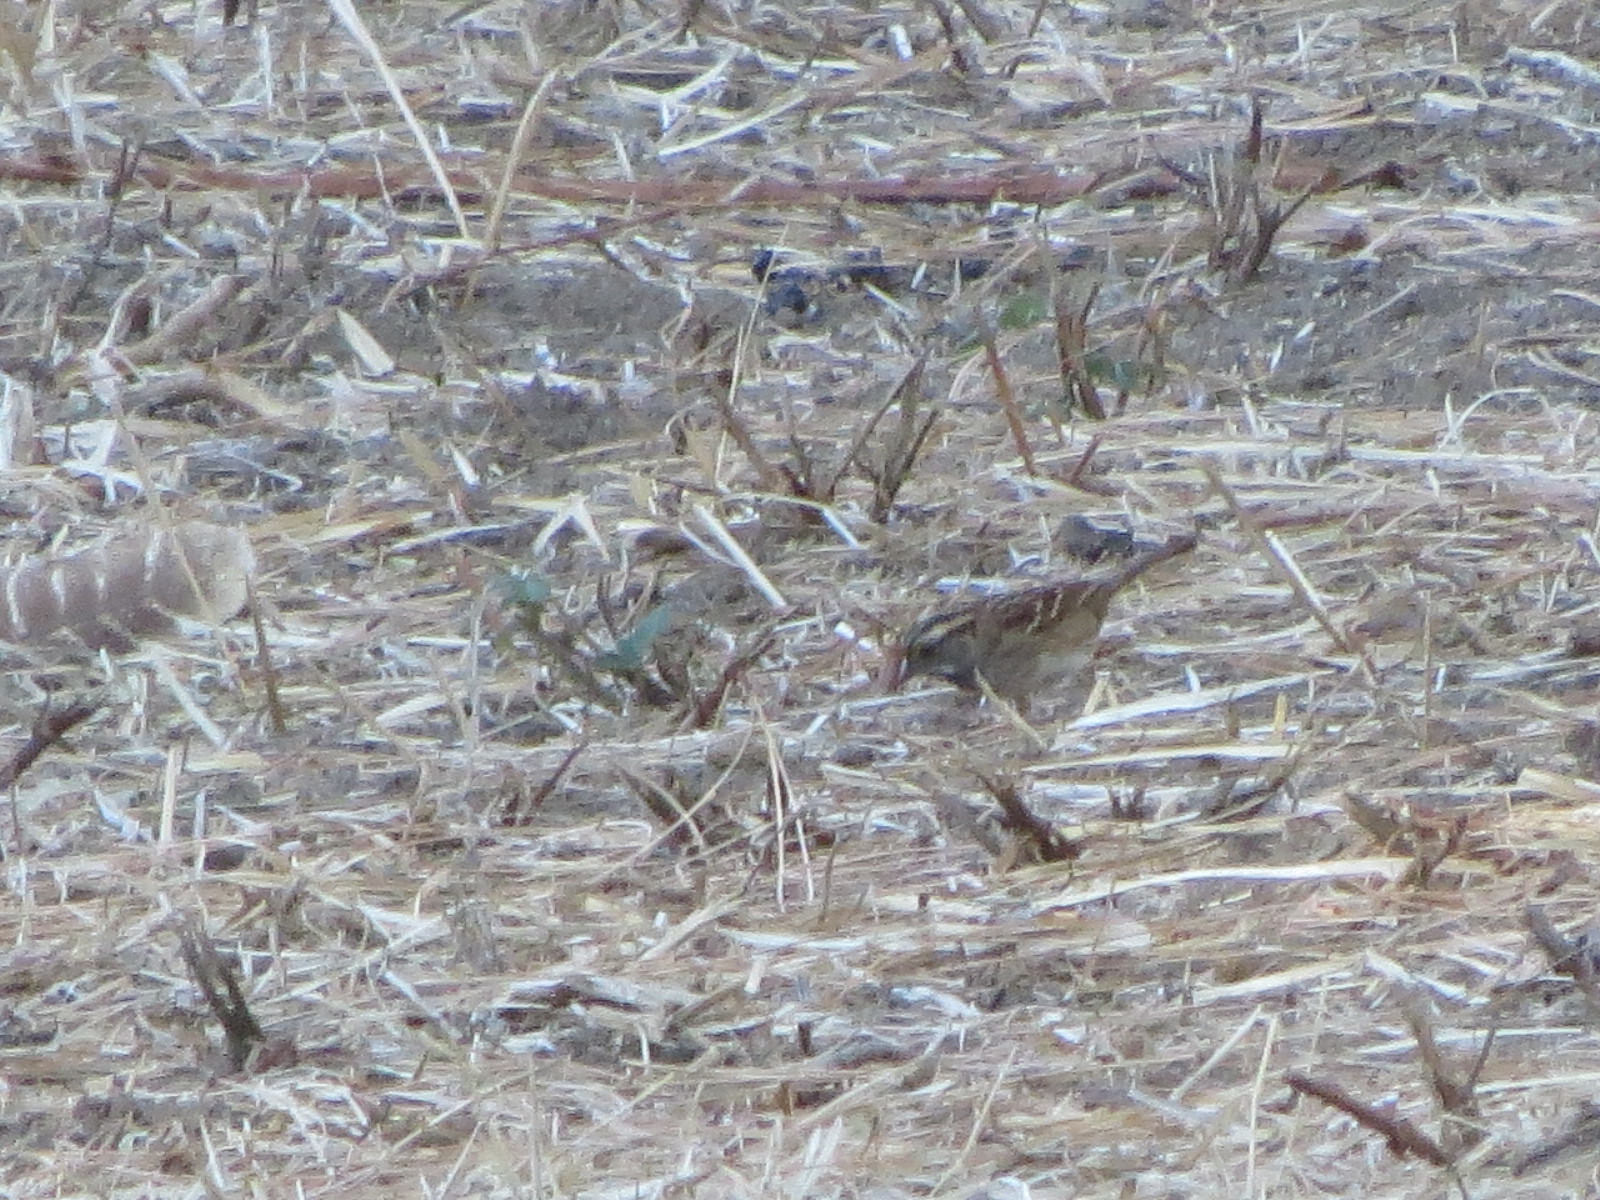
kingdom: Animalia
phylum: Chordata
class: Aves
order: Passeriformes
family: Passerellidae
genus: Zonotrichia
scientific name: Zonotrichia albicollis
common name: White-throated sparrow
